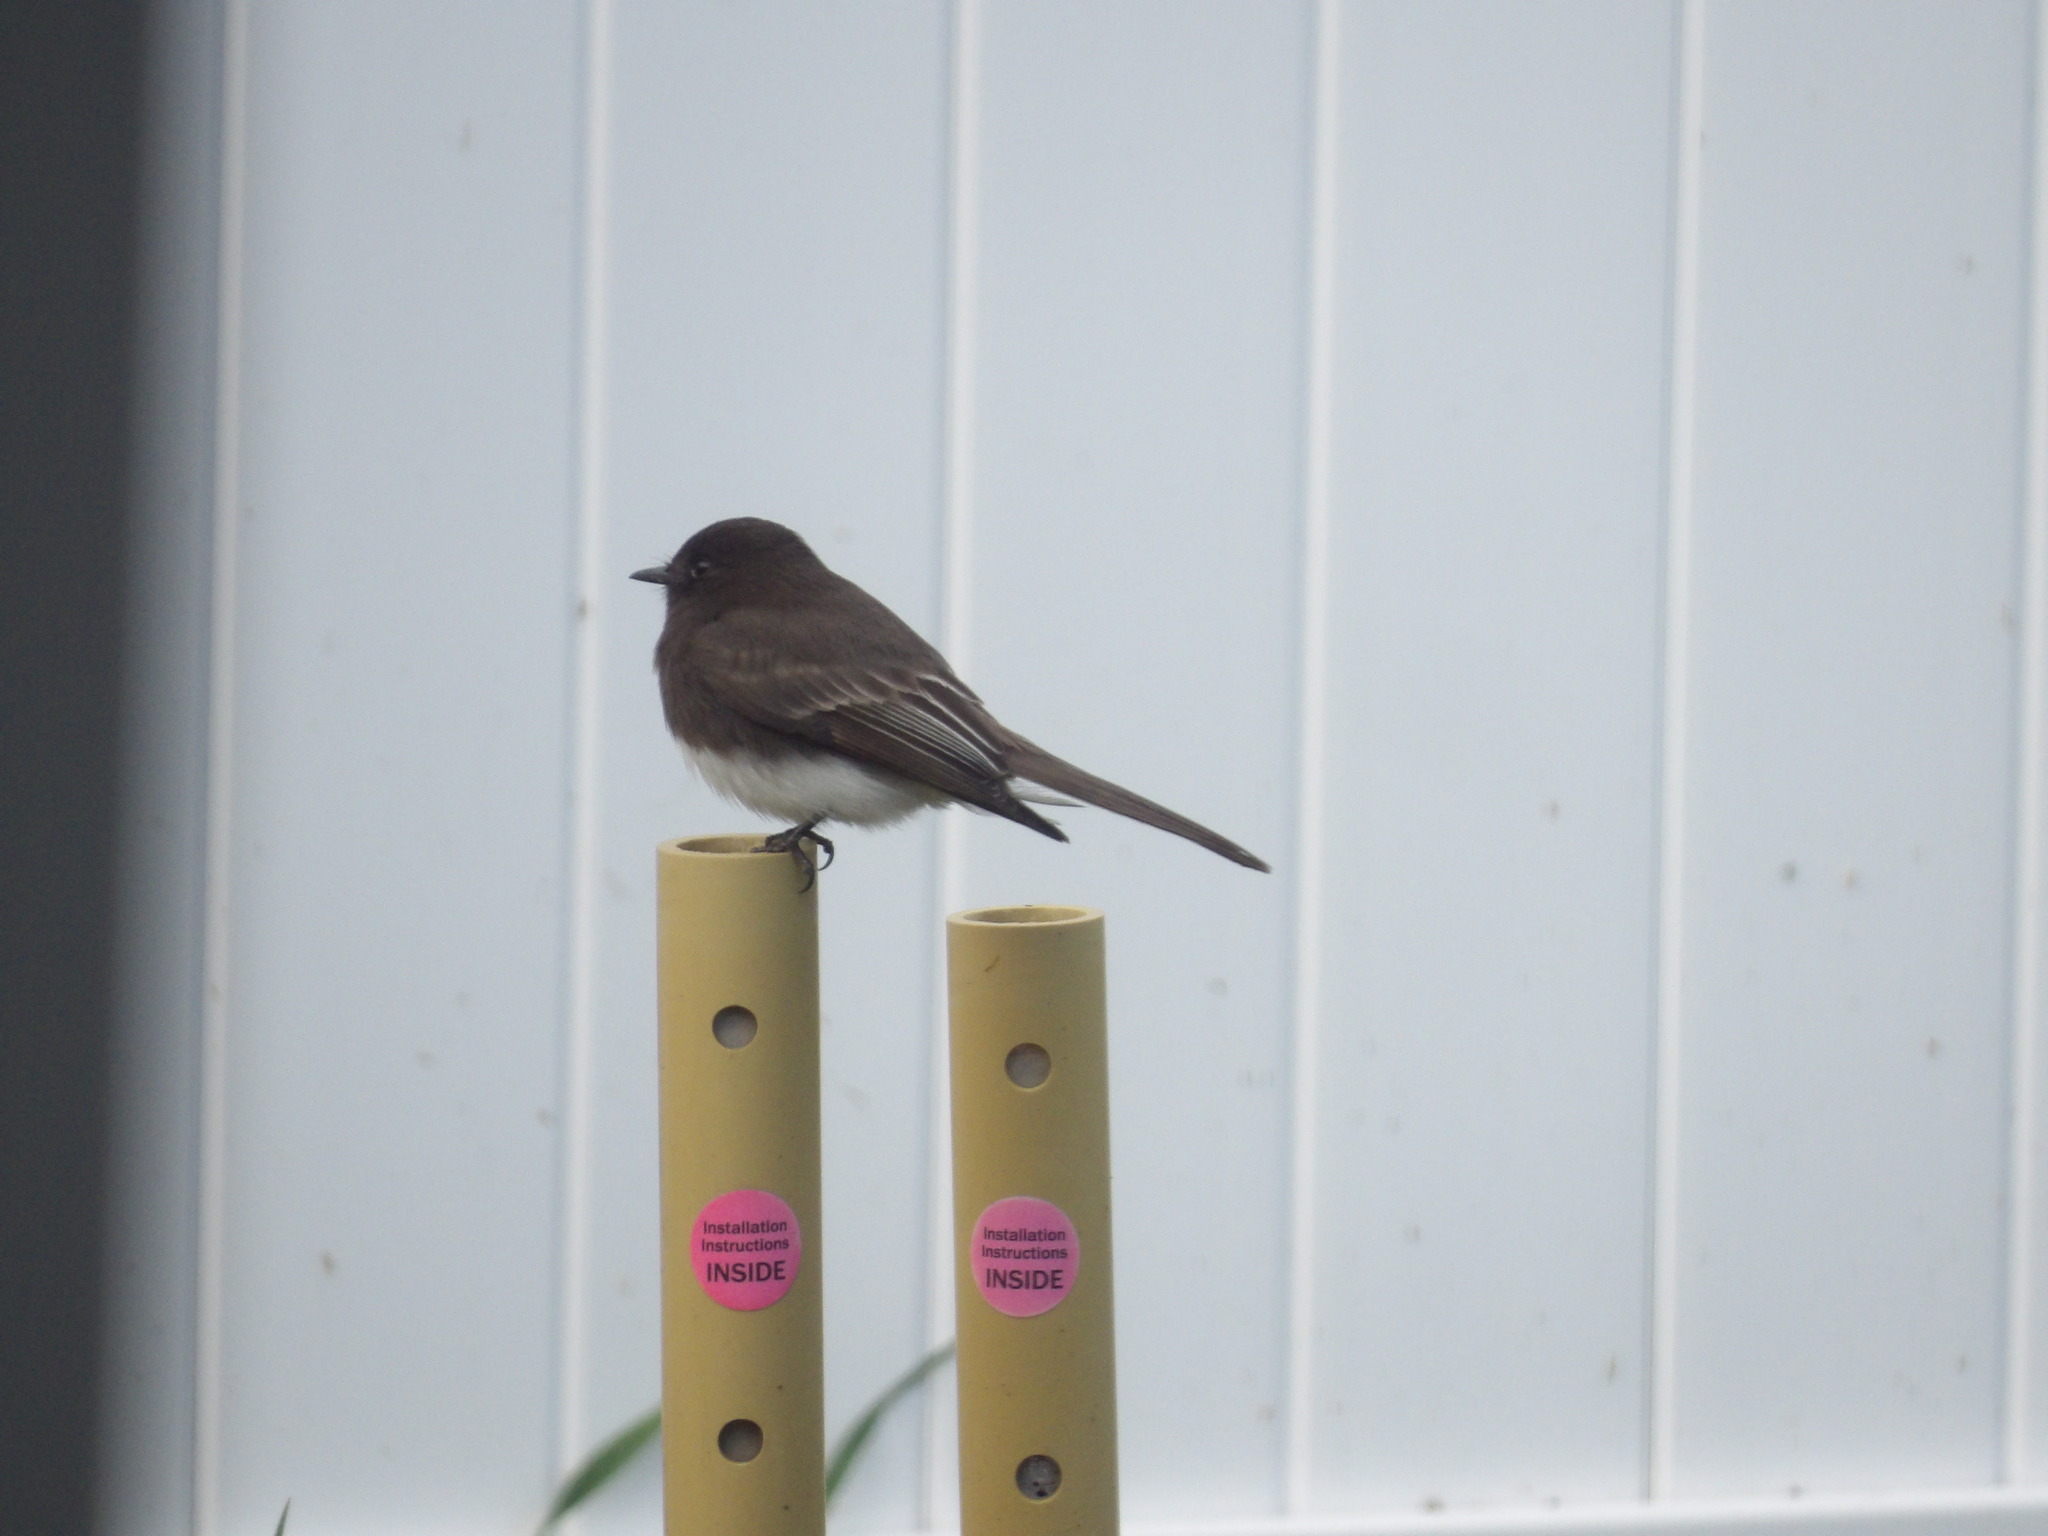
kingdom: Animalia
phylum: Chordata
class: Aves
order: Passeriformes
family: Tyrannidae
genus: Sayornis
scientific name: Sayornis nigricans
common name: Black phoebe
